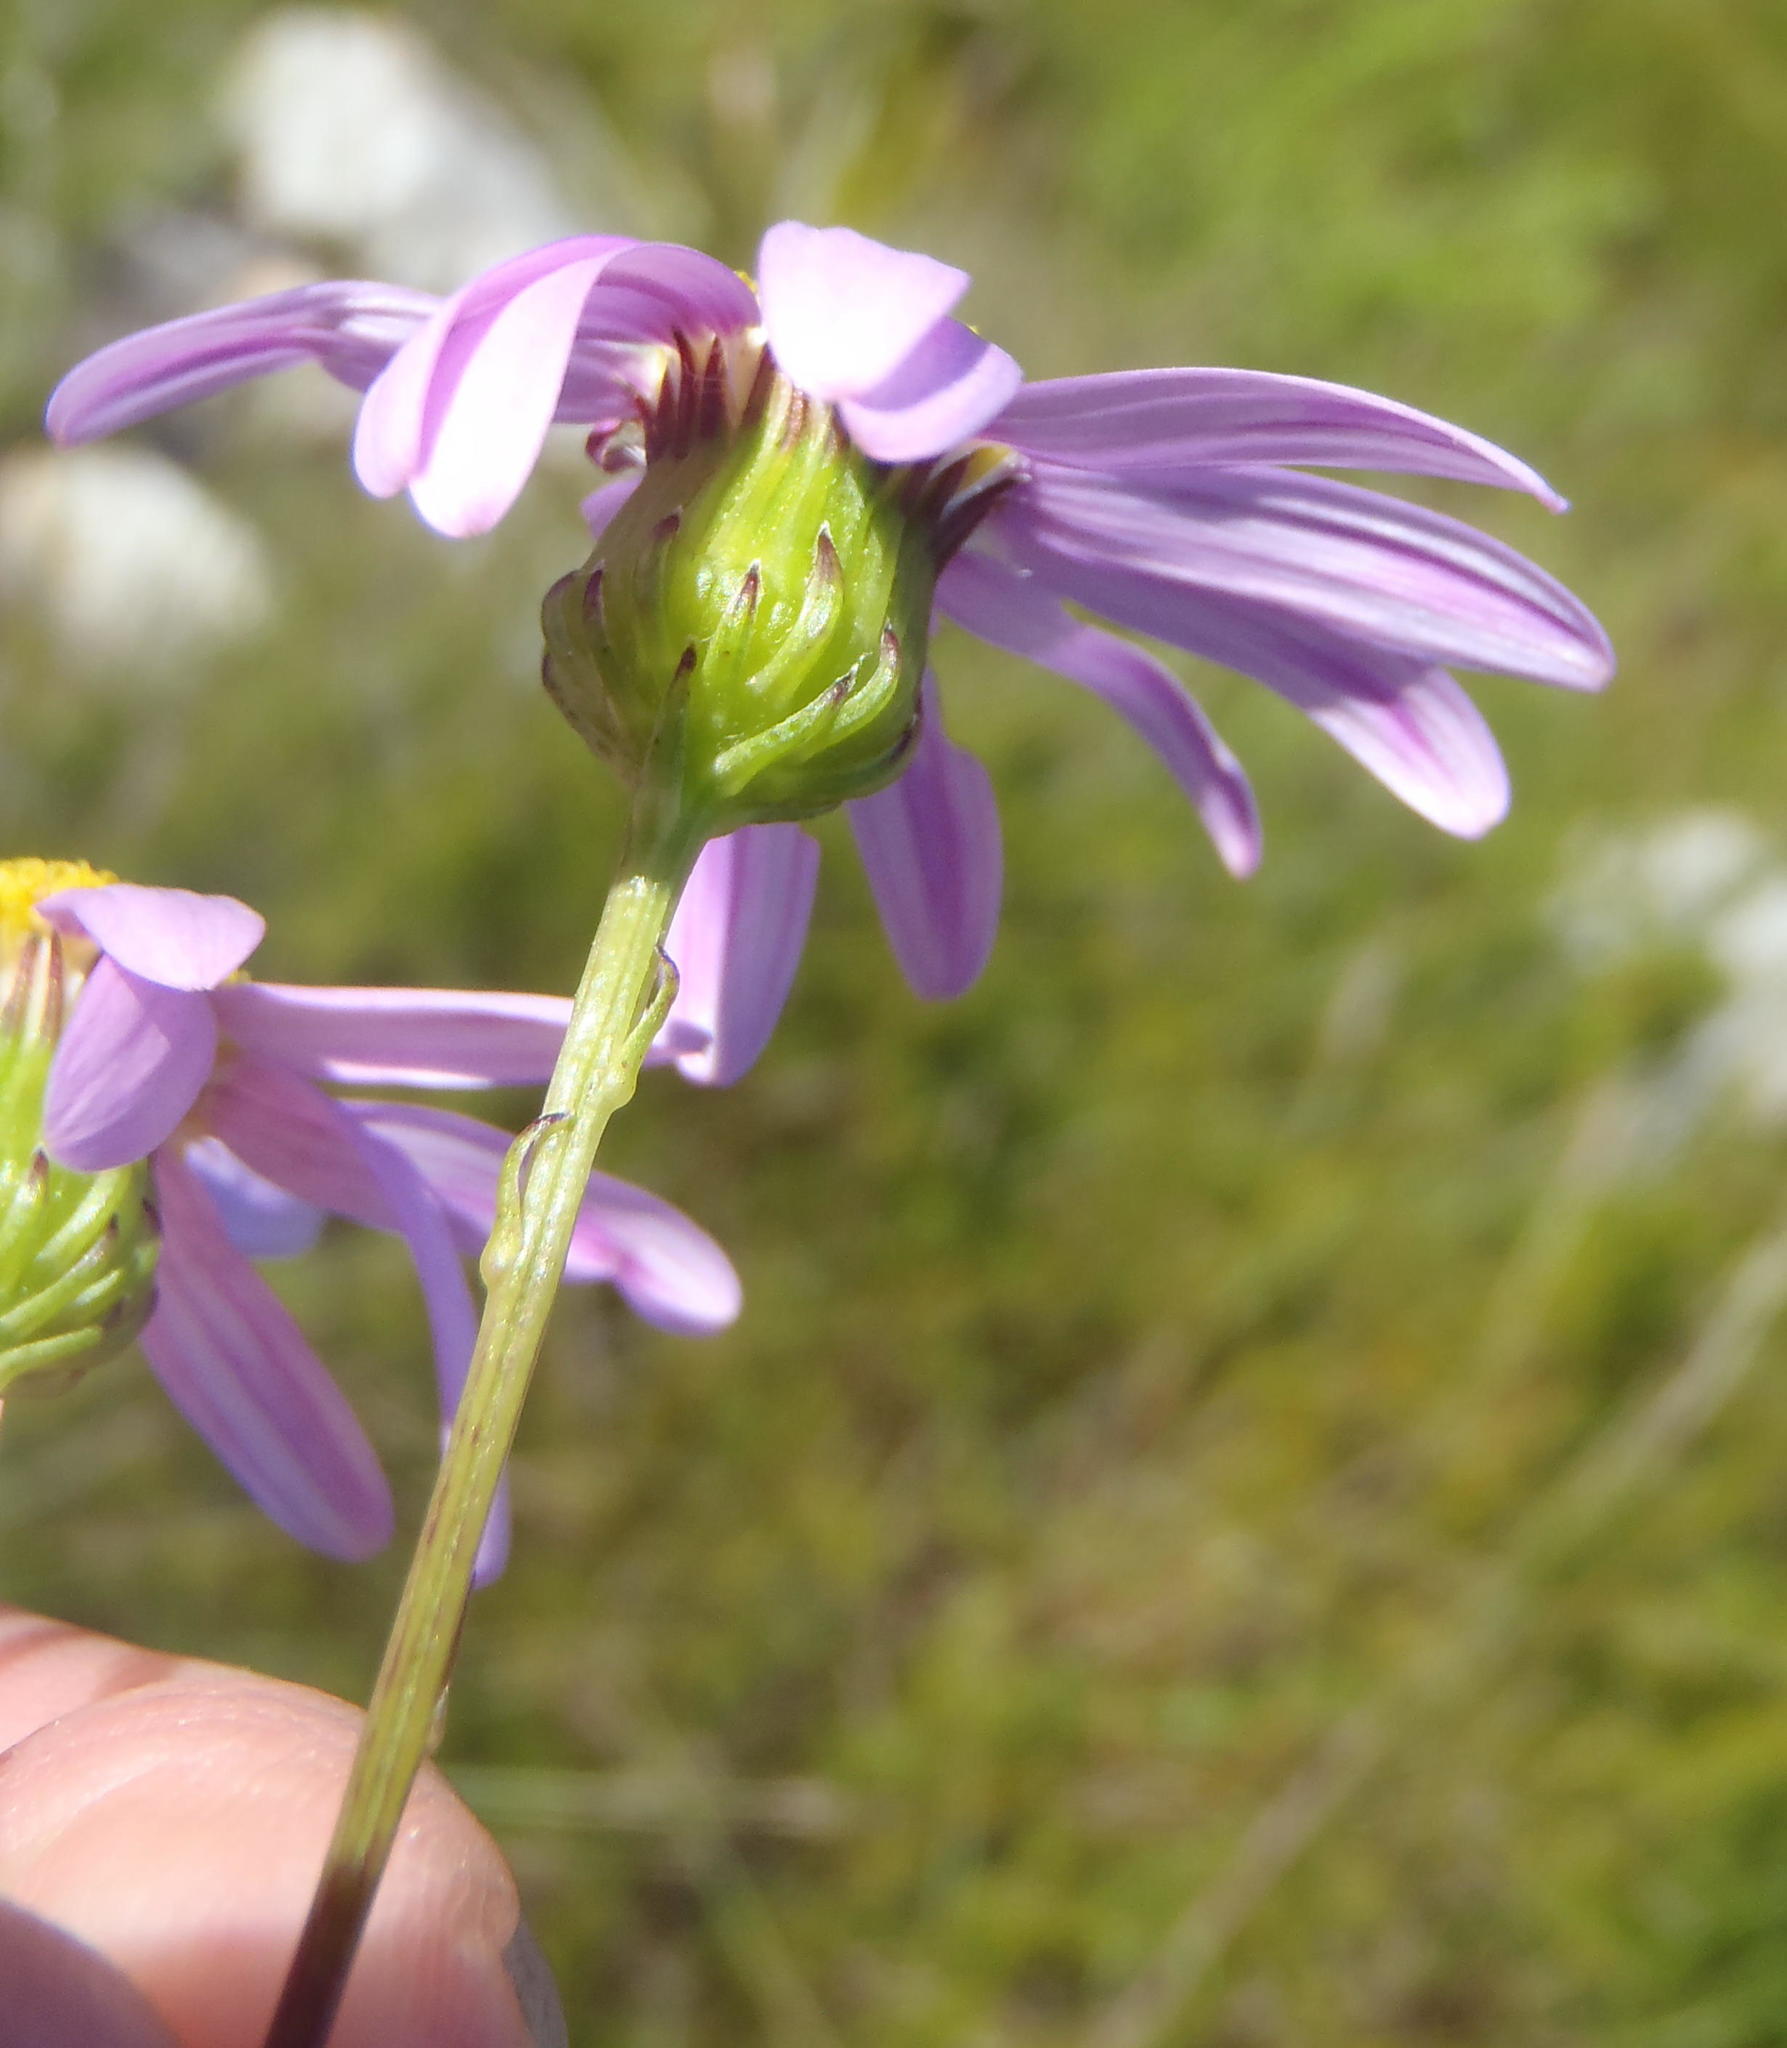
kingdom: Plantae
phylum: Tracheophyta
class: Magnoliopsida
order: Asterales
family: Asteraceae
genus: Senecio
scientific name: Senecio umbellatus
